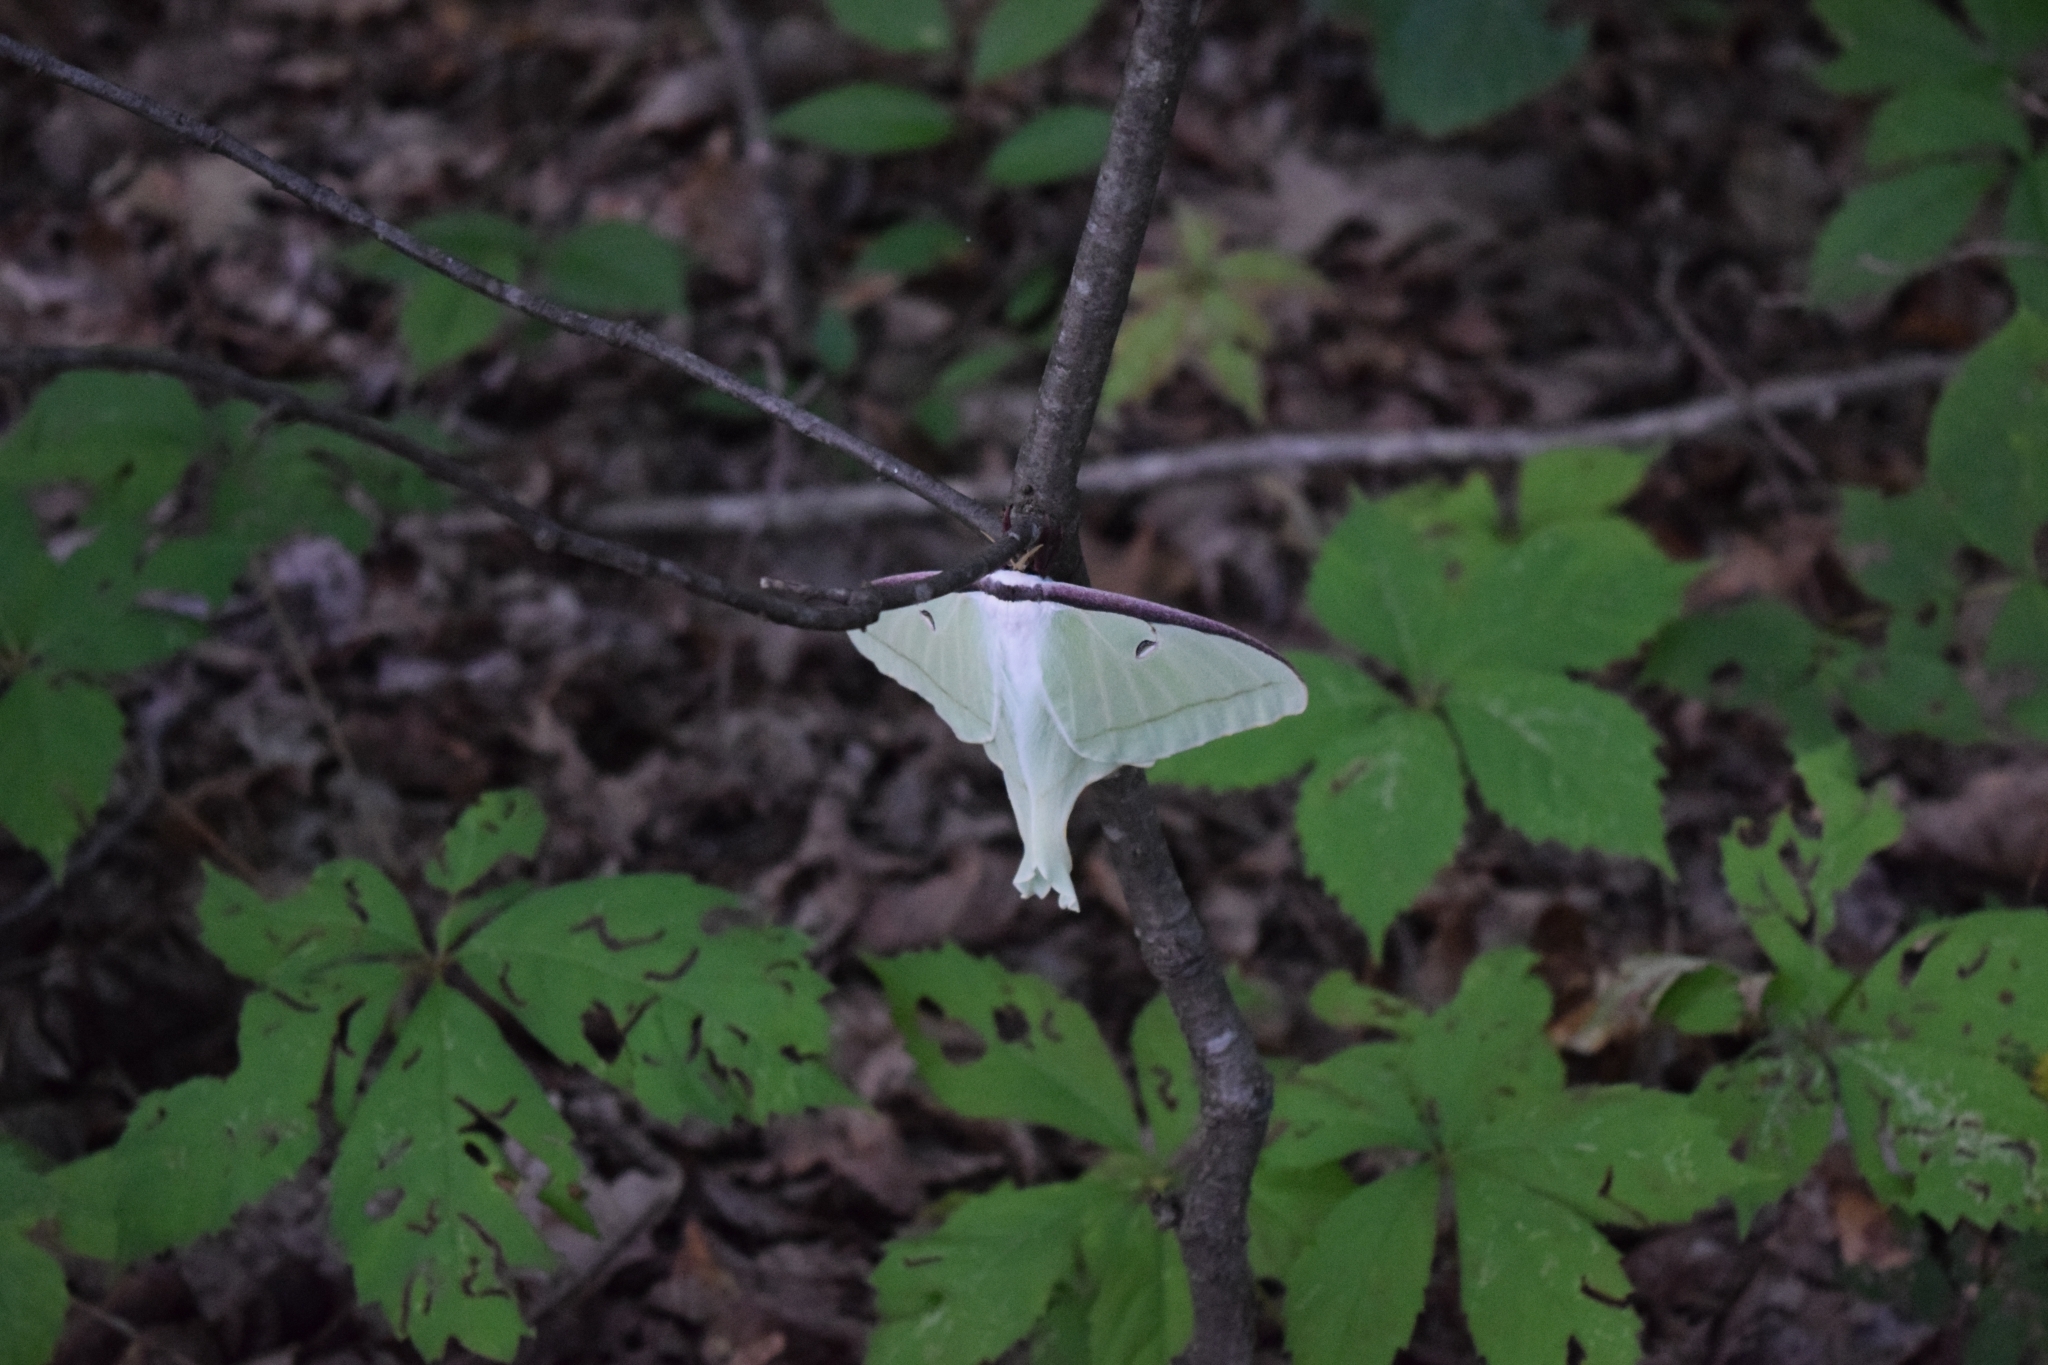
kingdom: Animalia
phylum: Arthropoda
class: Insecta
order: Lepidoptera
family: Saturniidae
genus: Actias
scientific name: Actias luna
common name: Luna moth
